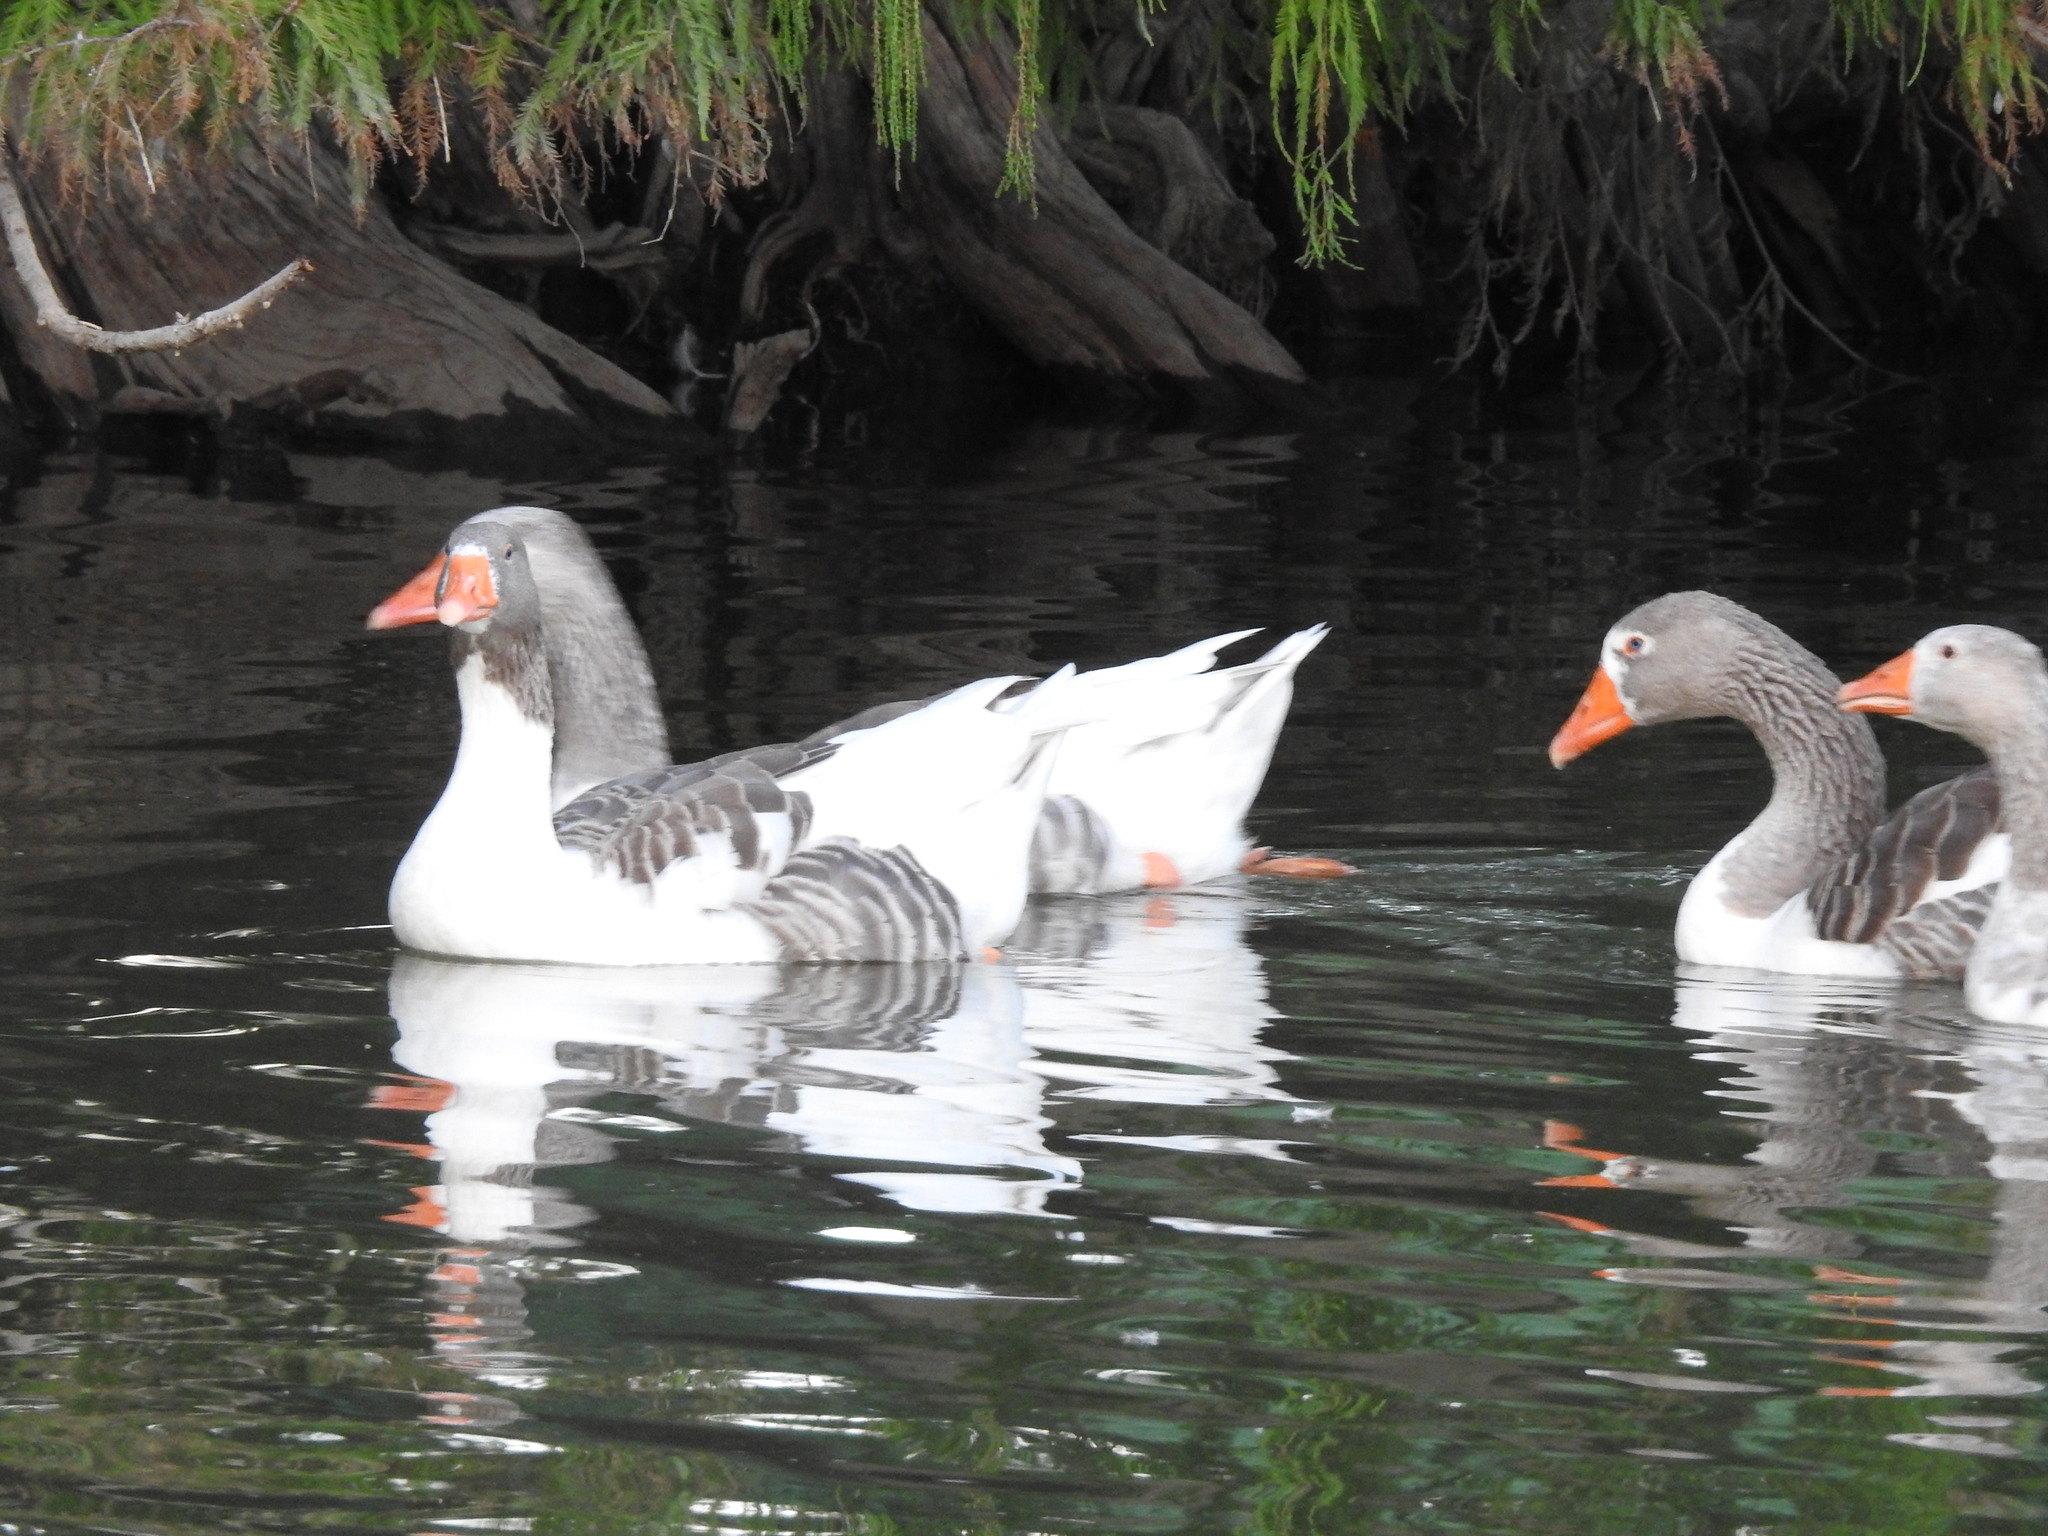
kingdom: Animalia
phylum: Chordata
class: Aves
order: Anseriformes
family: Anatidae
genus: Anser
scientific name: Anser anser
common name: Greylag goose
